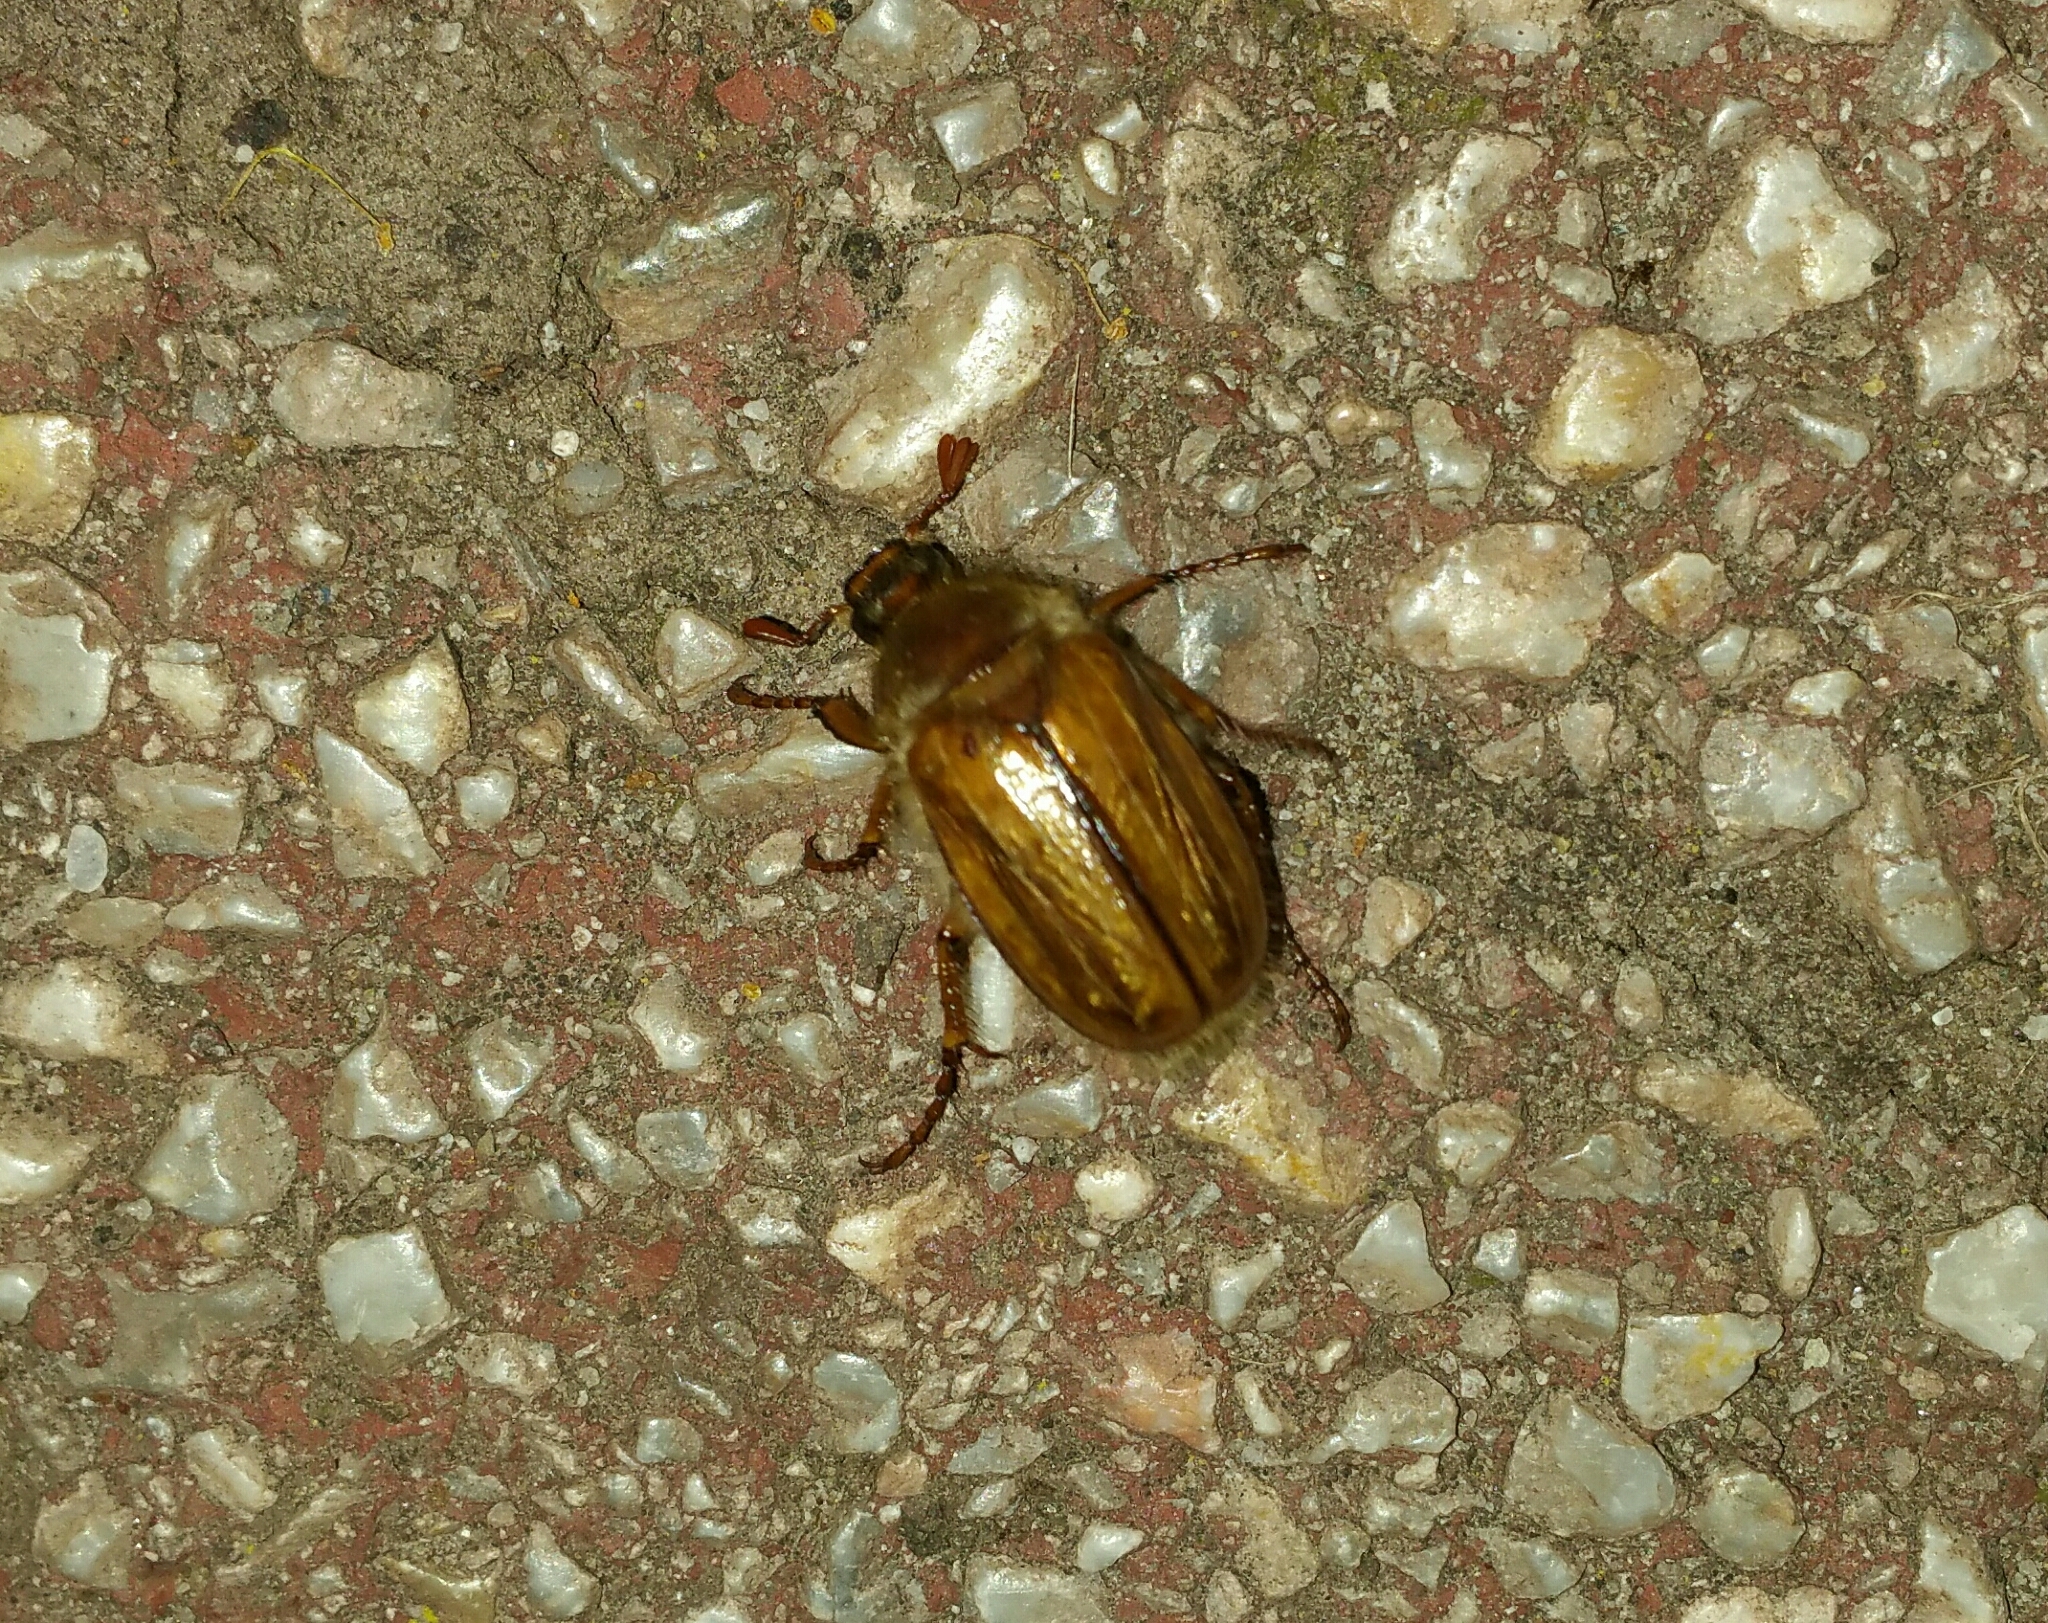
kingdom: Animalia
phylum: Arthropoda
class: Insecta
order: Coleoptera
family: Scarabaeidae
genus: Amphimallon
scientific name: Amphimallon solstitiale
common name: Summer chafer
